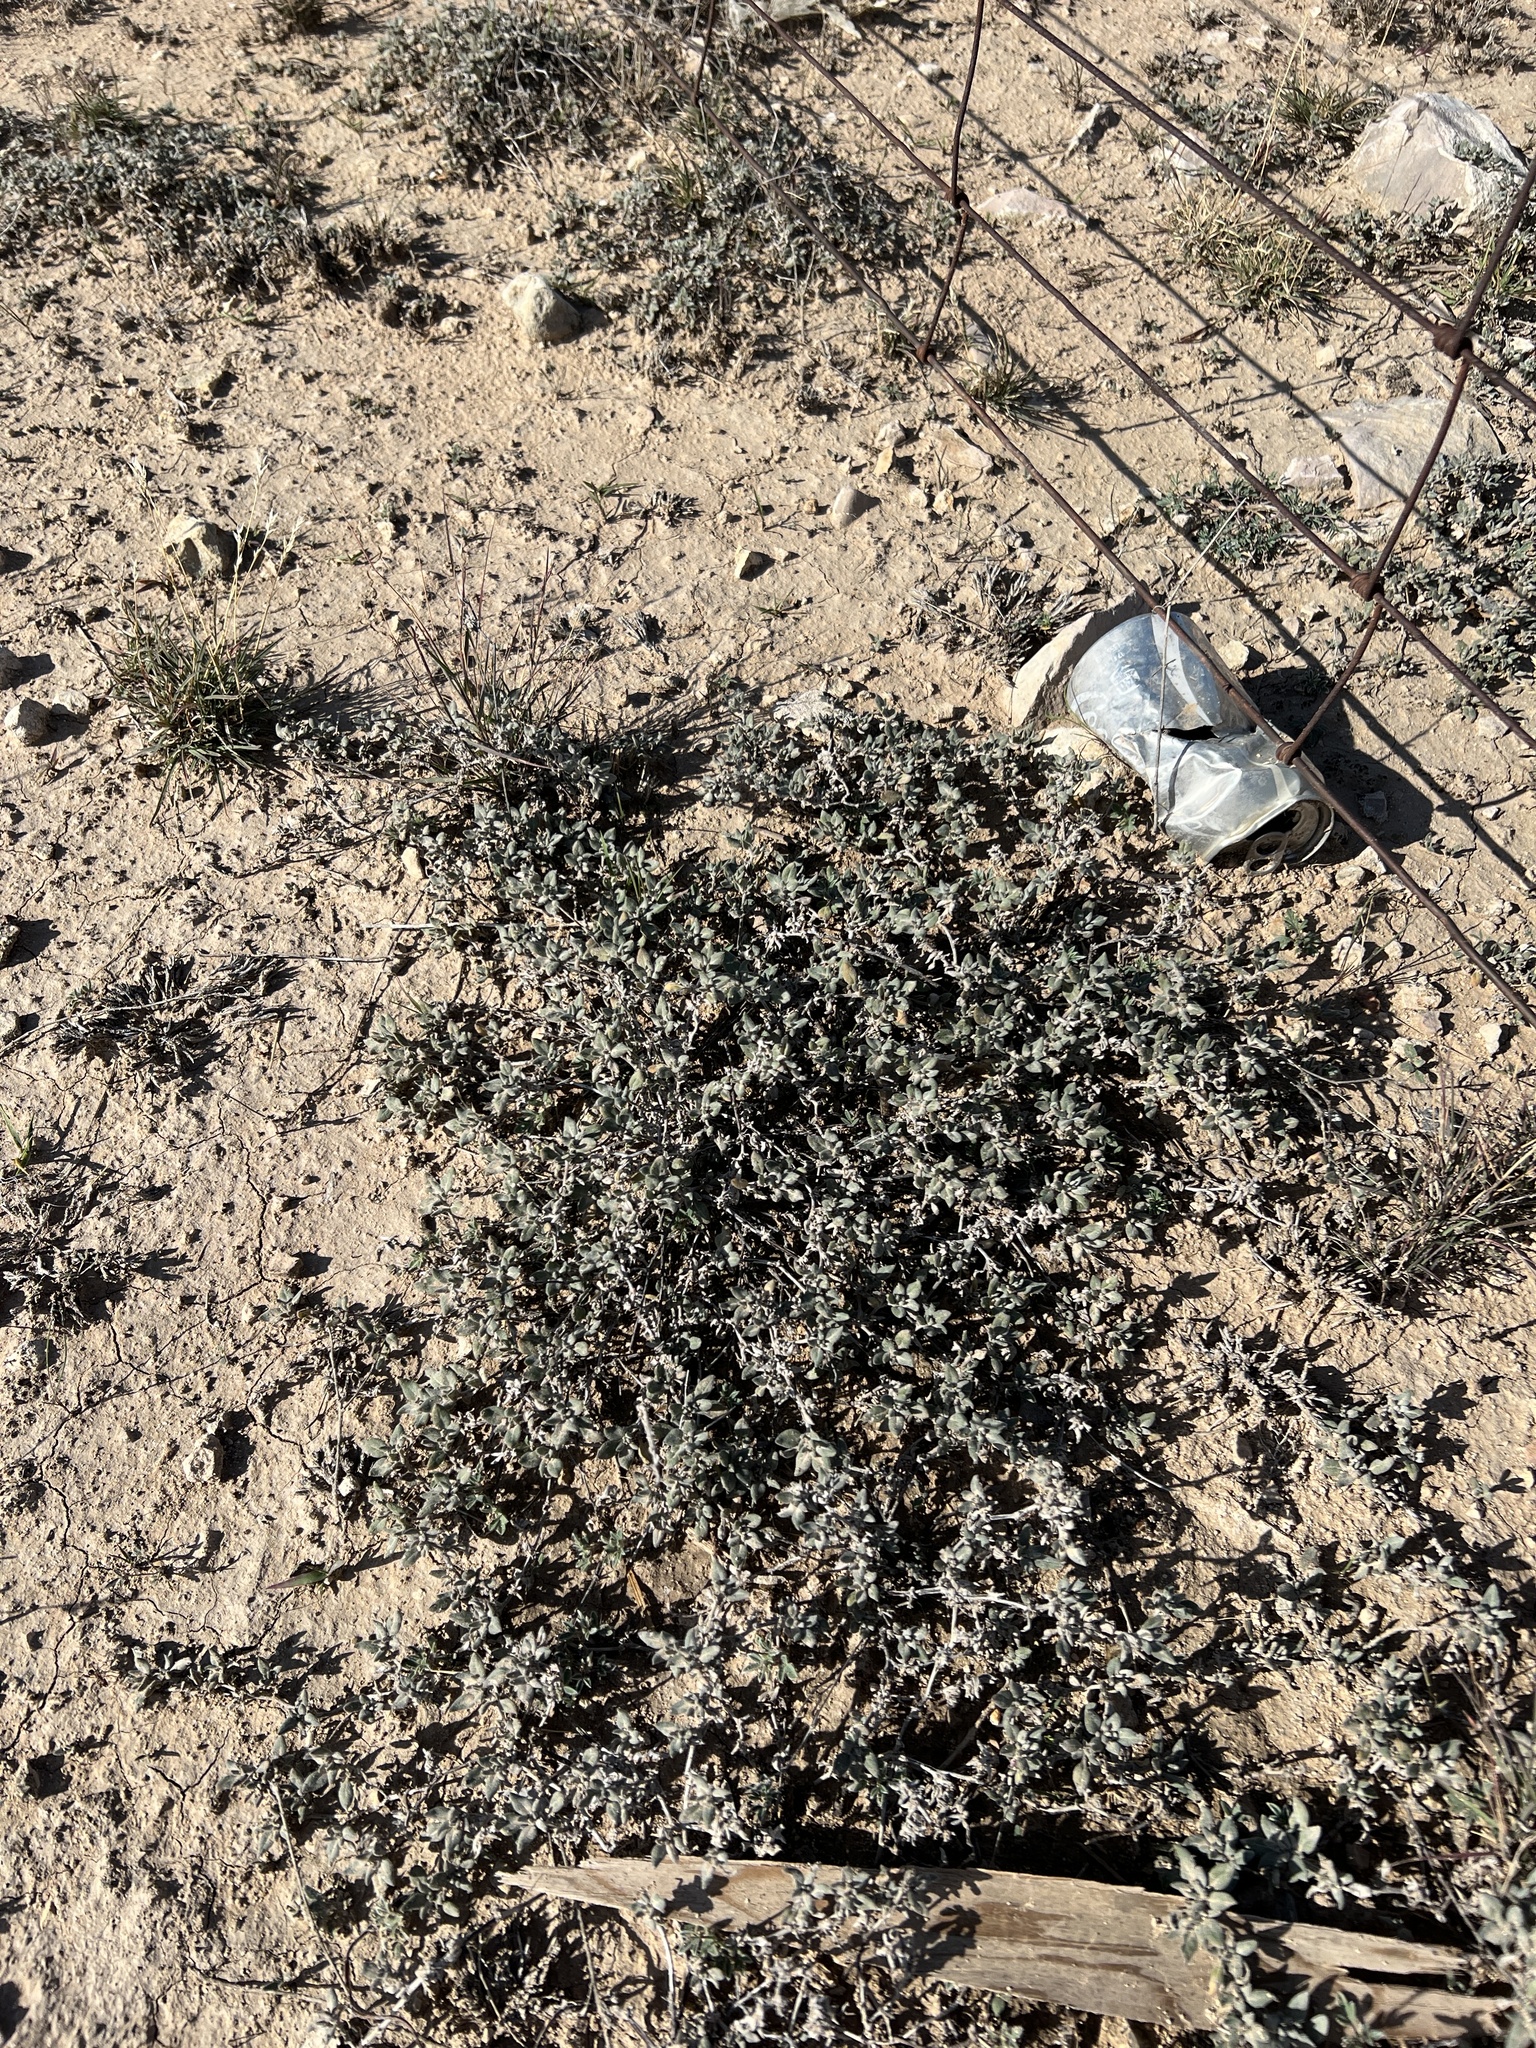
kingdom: Plantae
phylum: Tracheophyta
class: Magnoliopsida
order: Boraginales
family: Ehretiaceae
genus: Tiquilia
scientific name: Tiquilia canescens
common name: Hairy tiquilia
